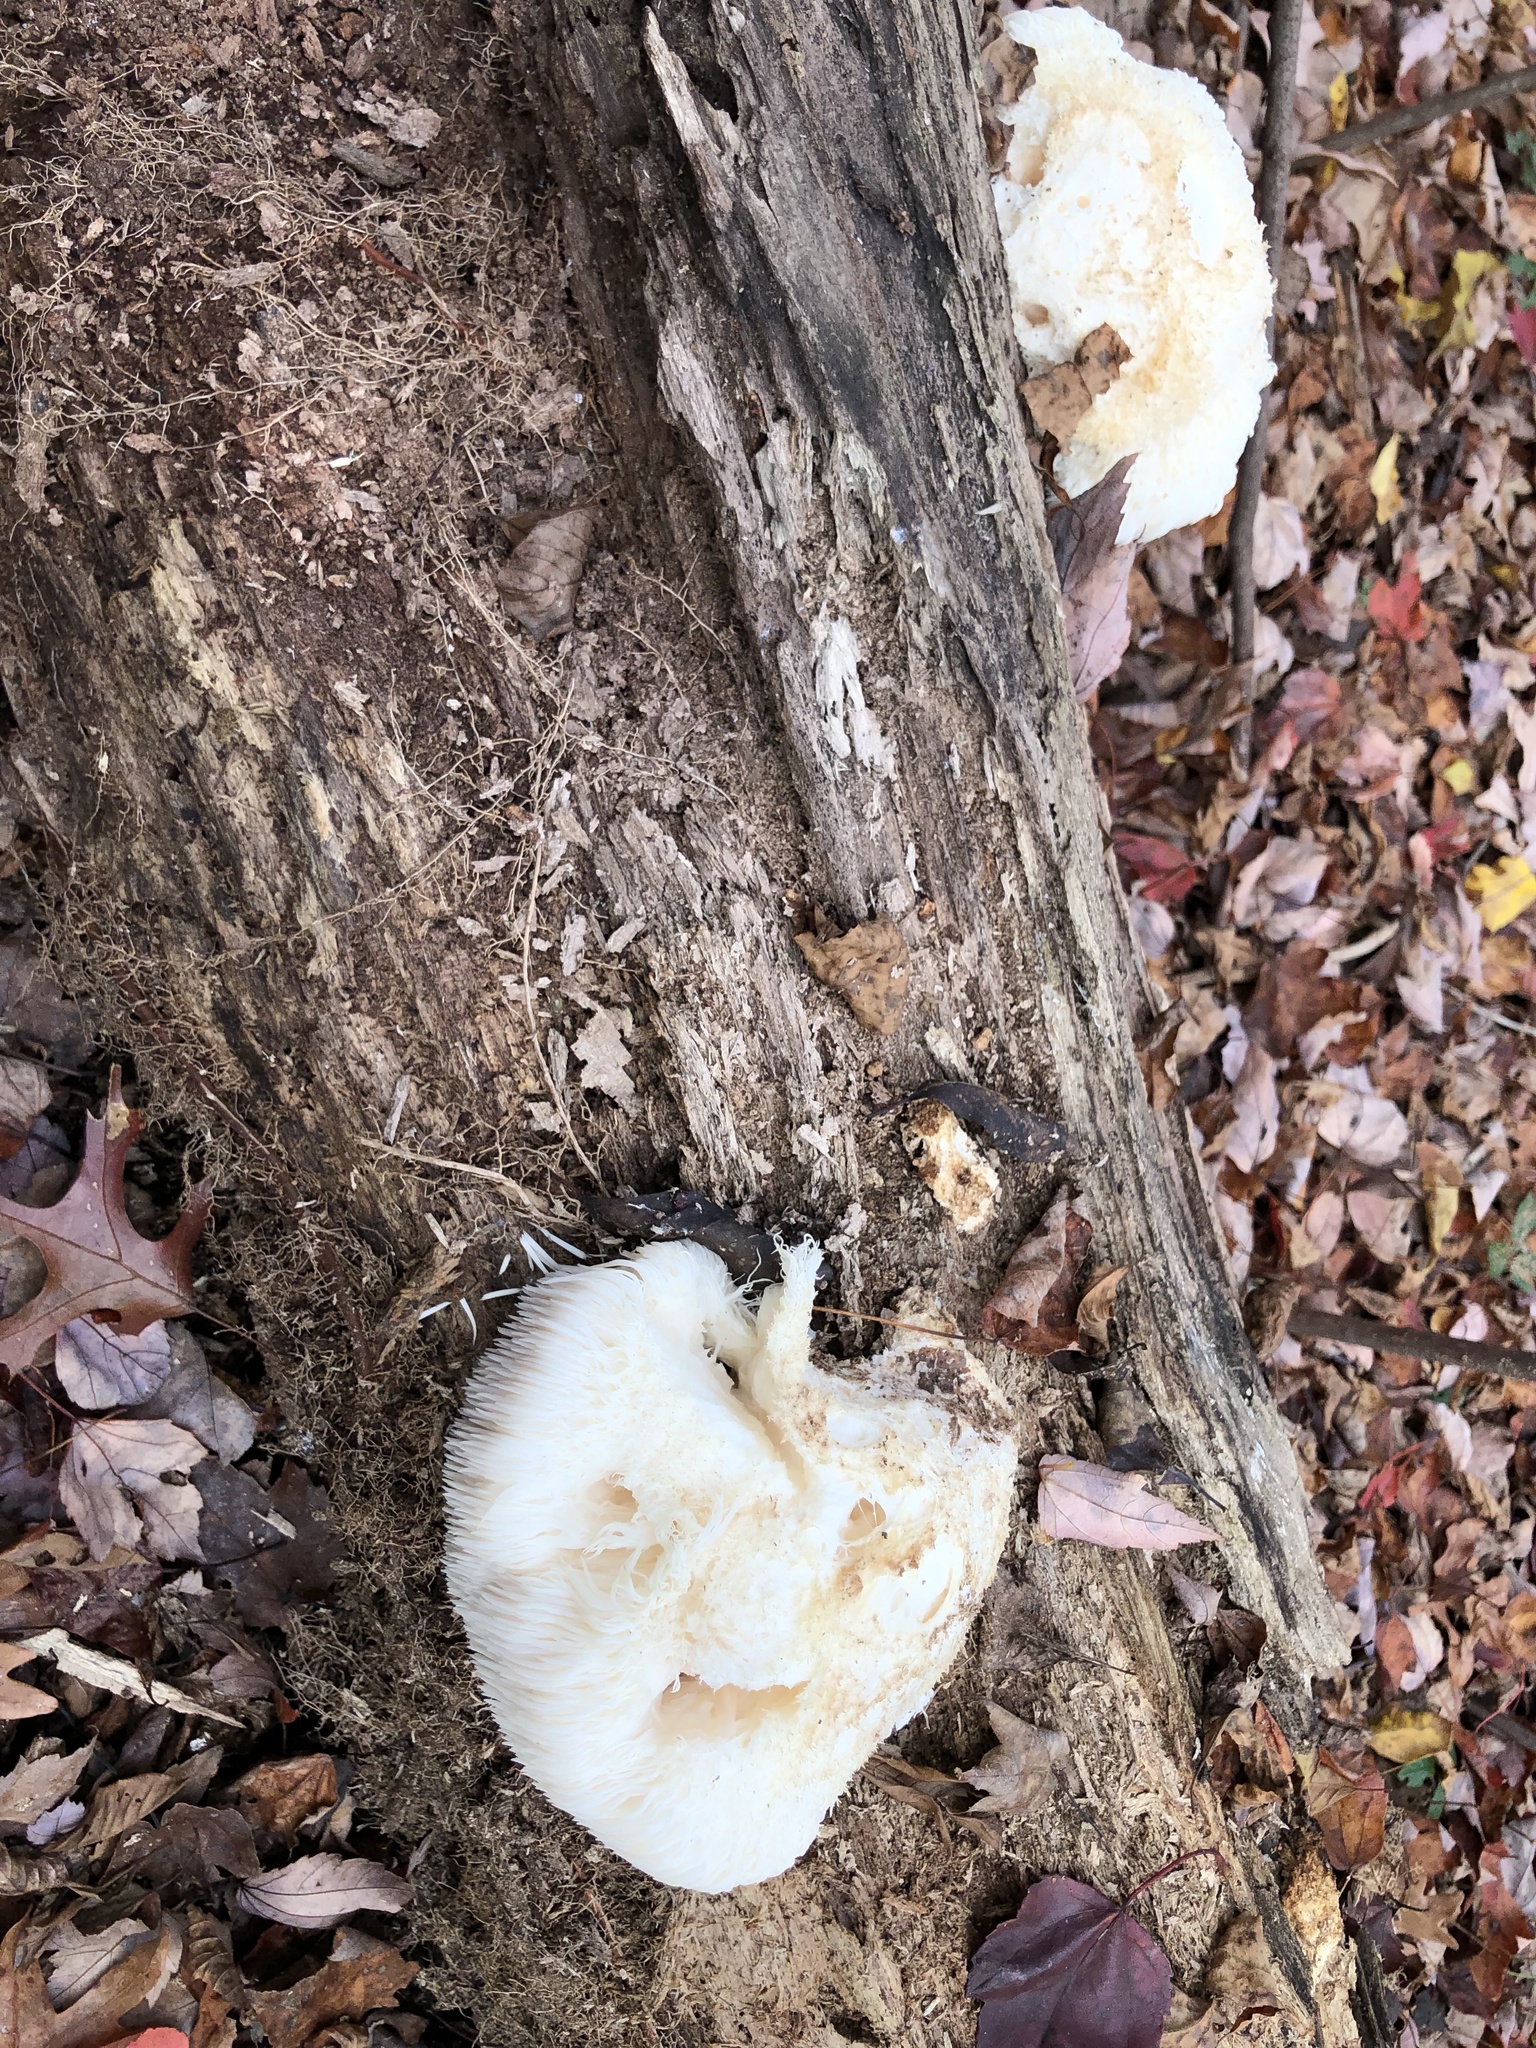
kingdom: Fungi
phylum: Basidiomycota
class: Agaricomycetes
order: Russulales
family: Hericiaceae
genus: Hericium
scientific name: Hericium erinaceus
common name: Bearded tooth
